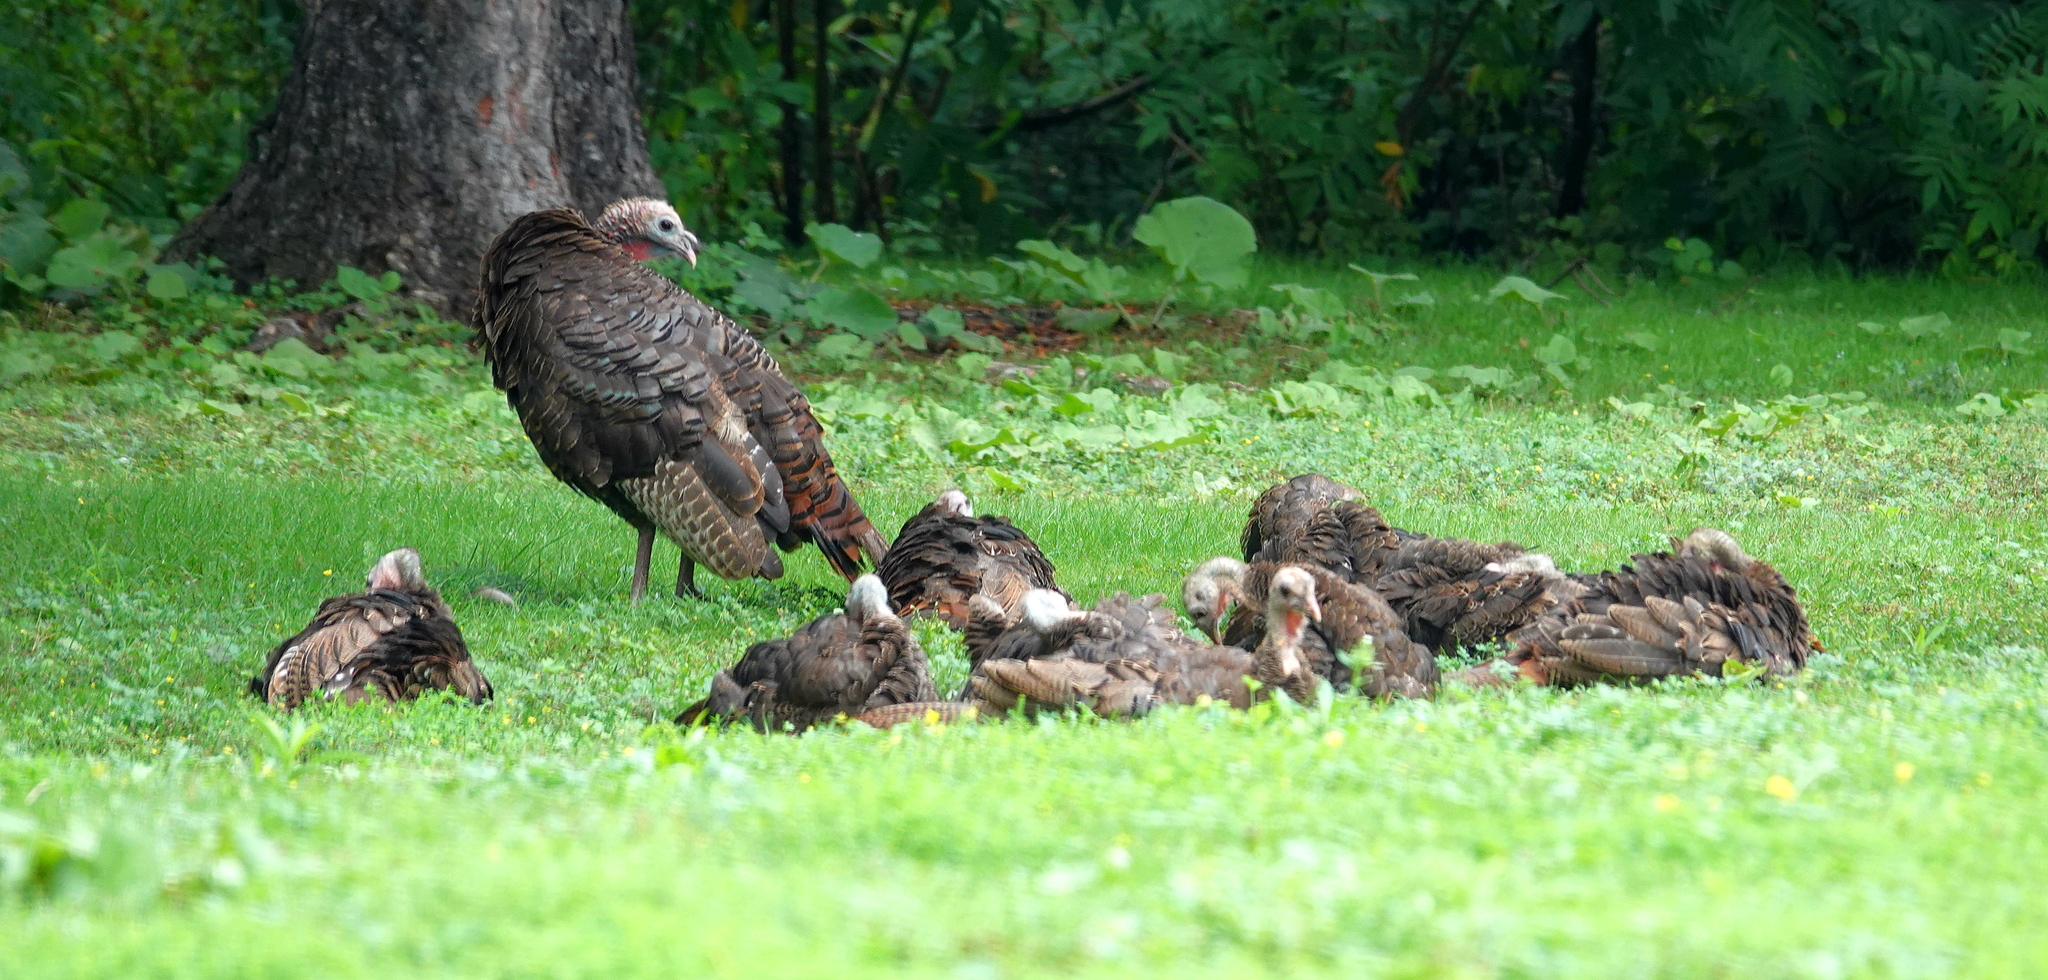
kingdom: Animalia
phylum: Chordata
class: Aves
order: Galliformes
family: Phasianidae
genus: Meleagris
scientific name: Meleagris gallopavo
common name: Wild turkey
